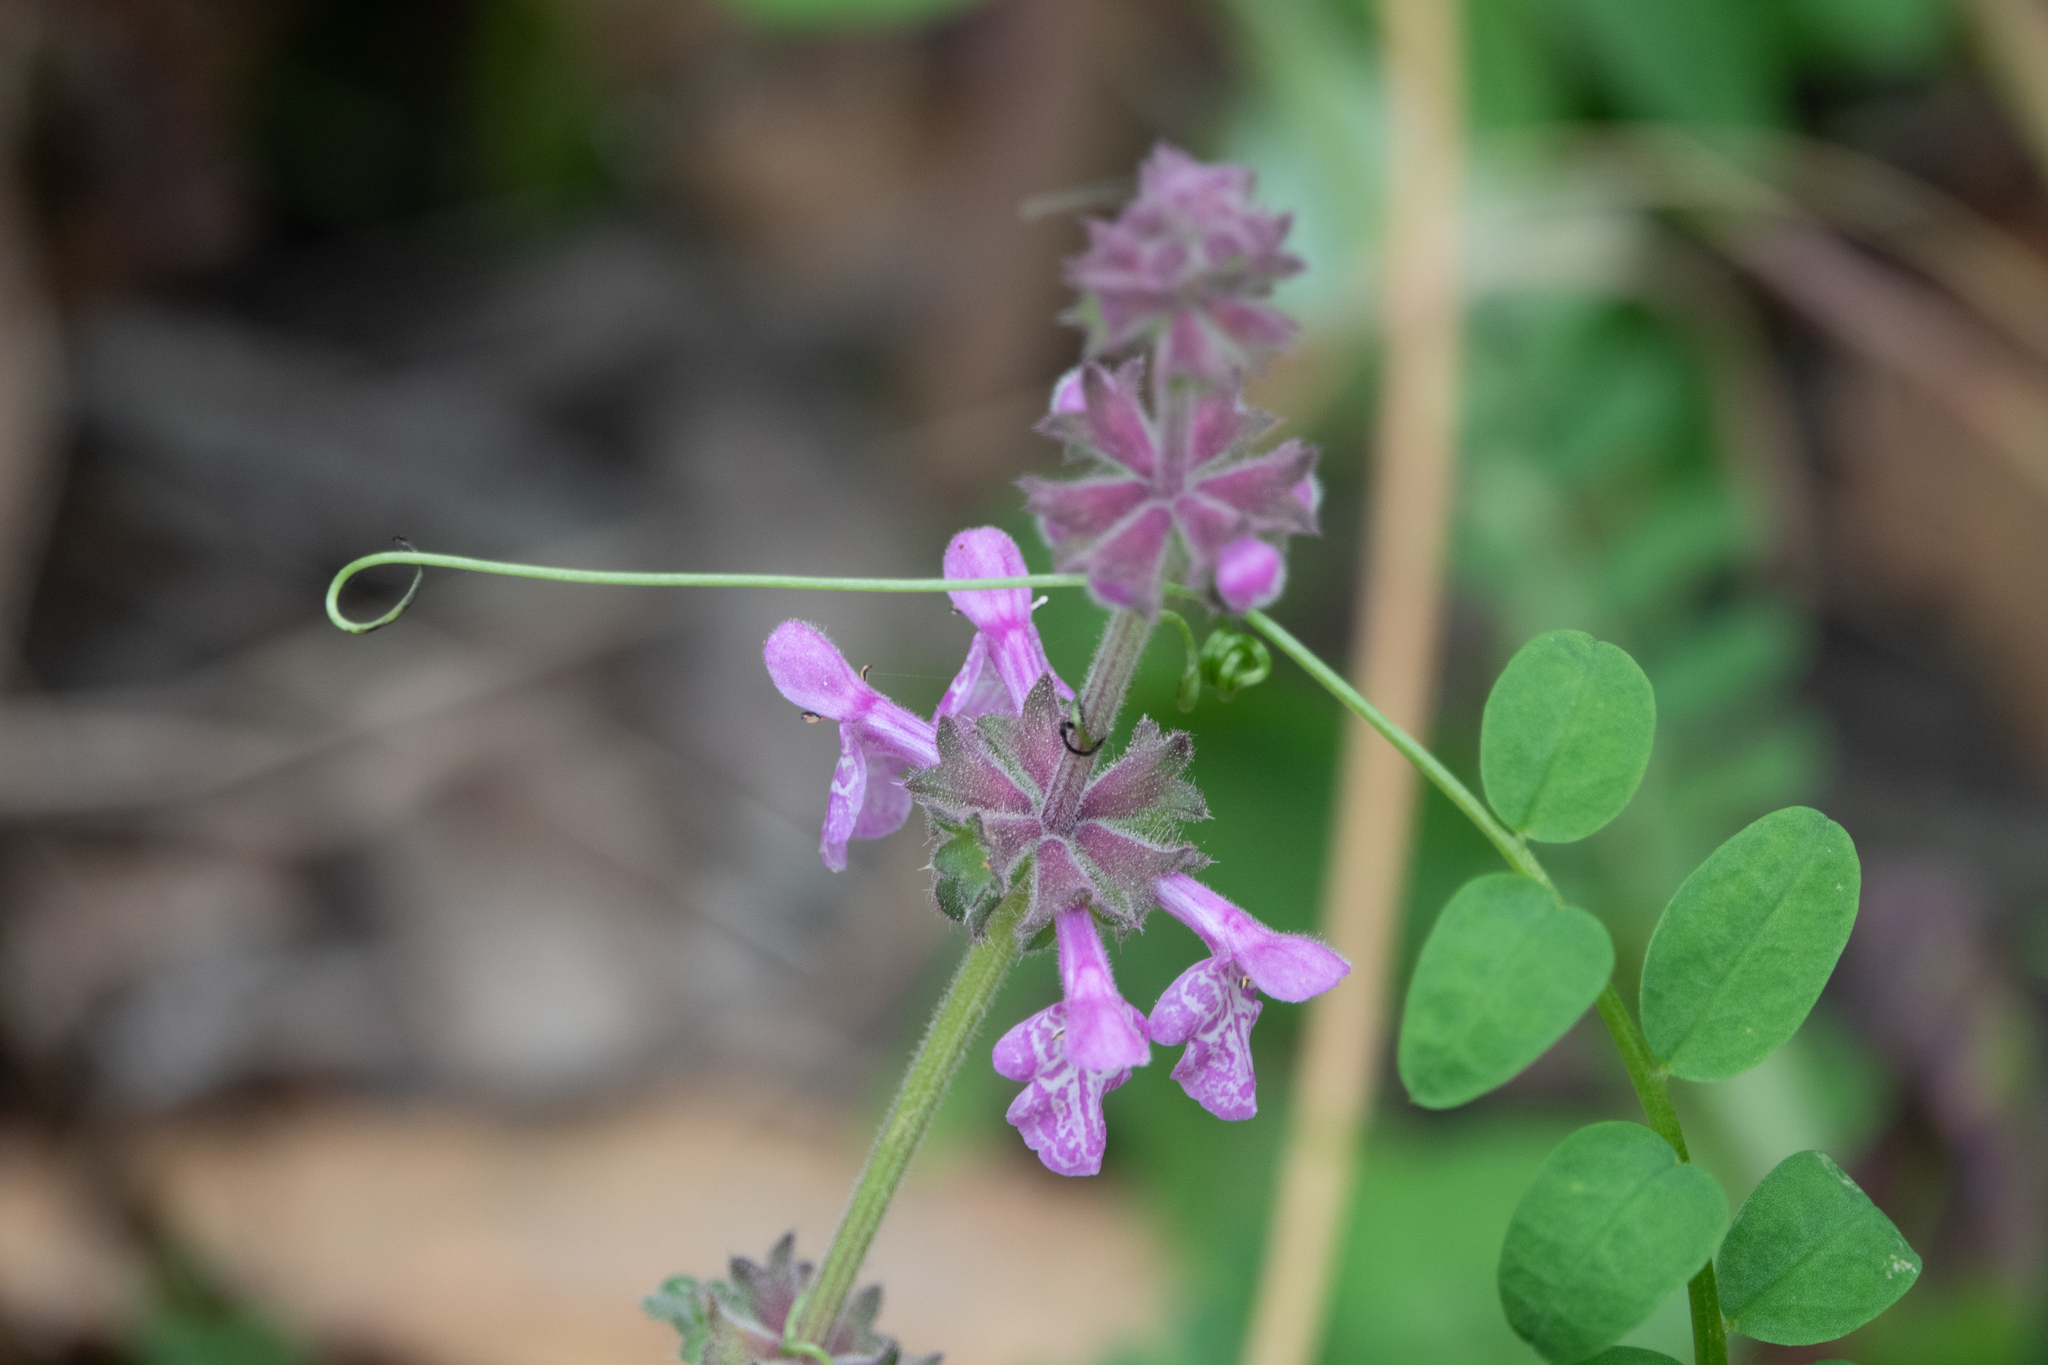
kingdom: Plantae
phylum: Tracheophyta
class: Magnoliopsida
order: Lamiales
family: Lamiaceae
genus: Stachys
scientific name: Stachys bullata
